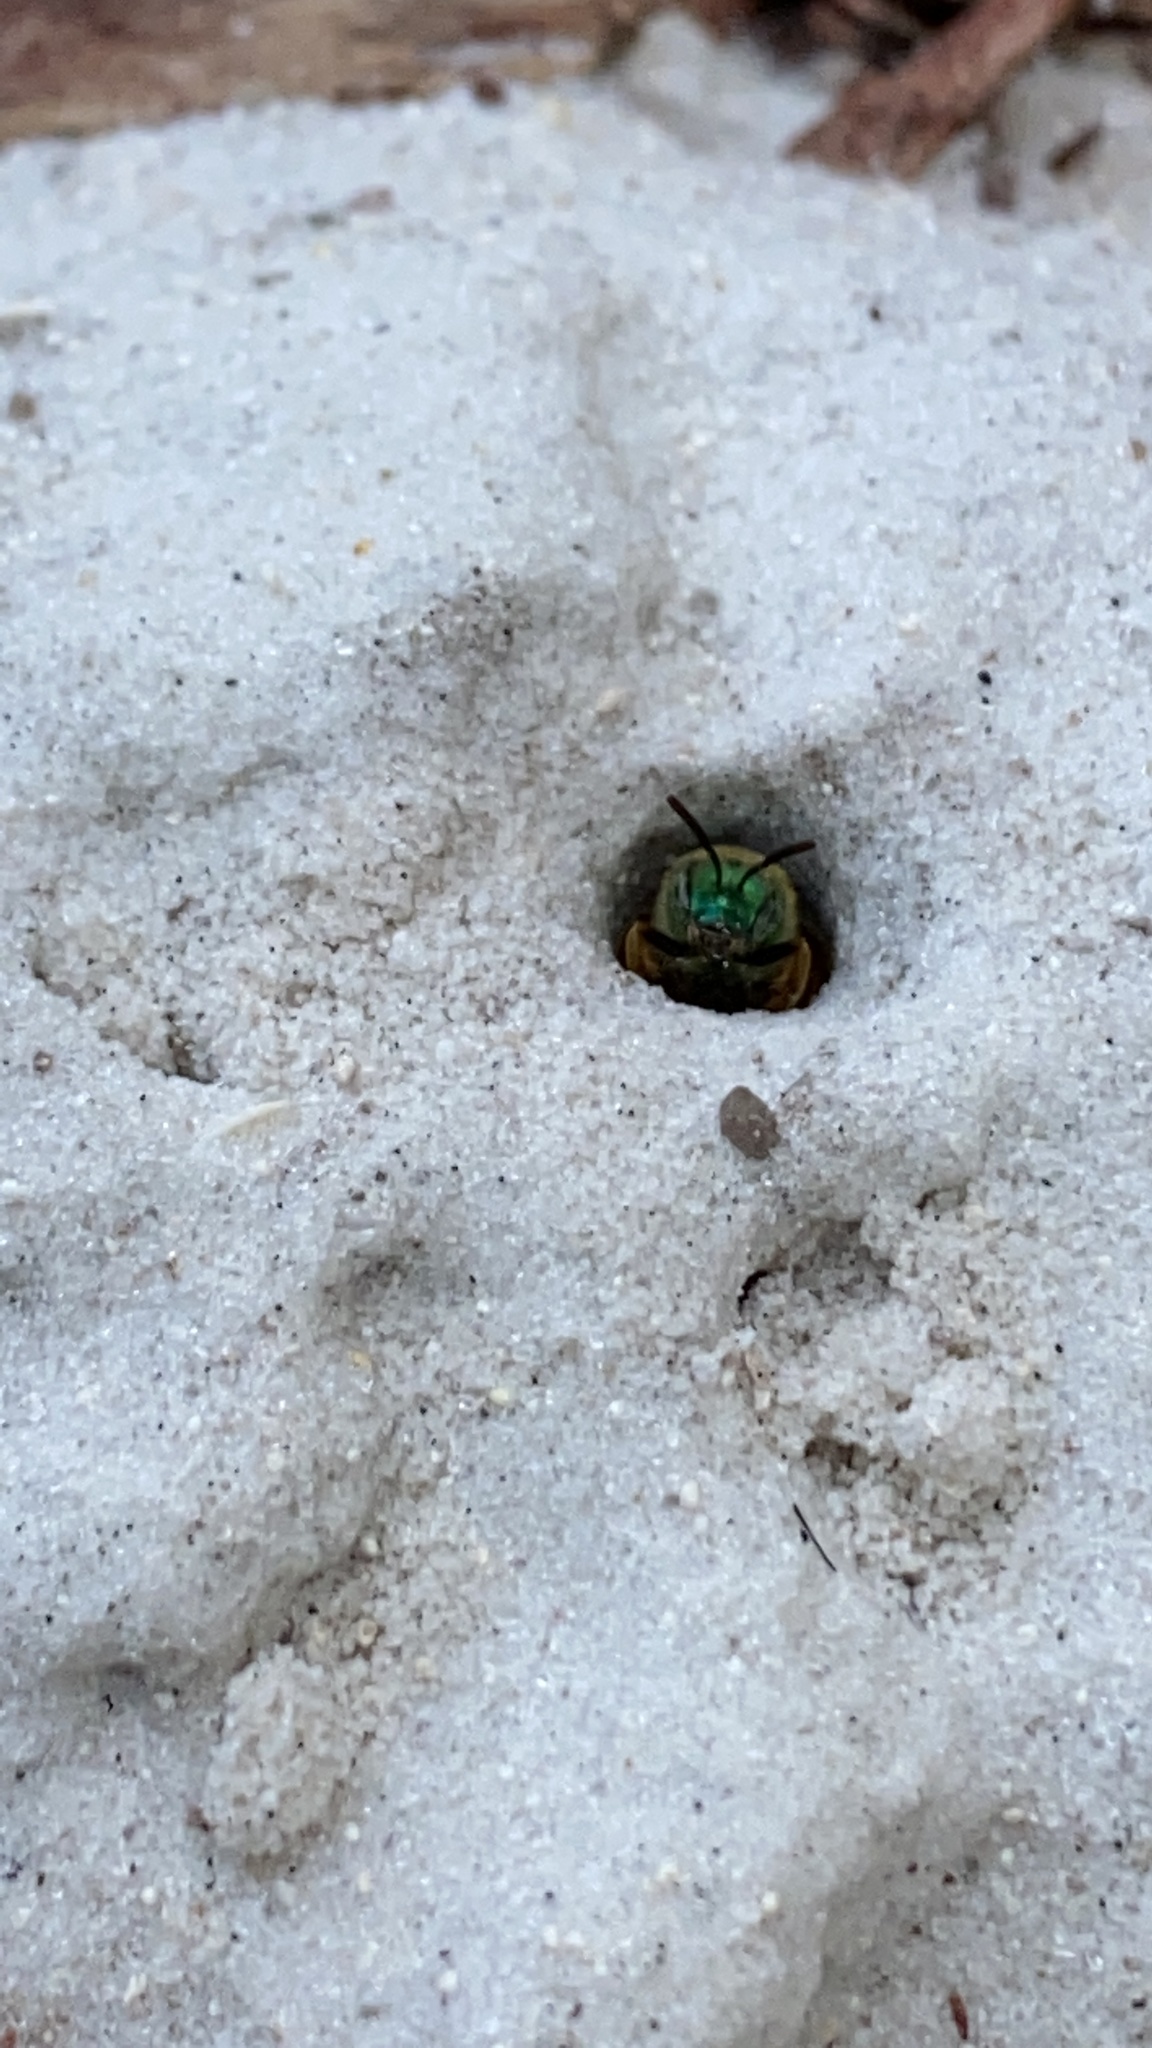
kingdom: Animalia
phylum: Arthropoda
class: Insecta
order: Hymenoptera
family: Halictidae
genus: Agapostemon
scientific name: Agapostemon splendens
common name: Brown-winged striped sweat bee
